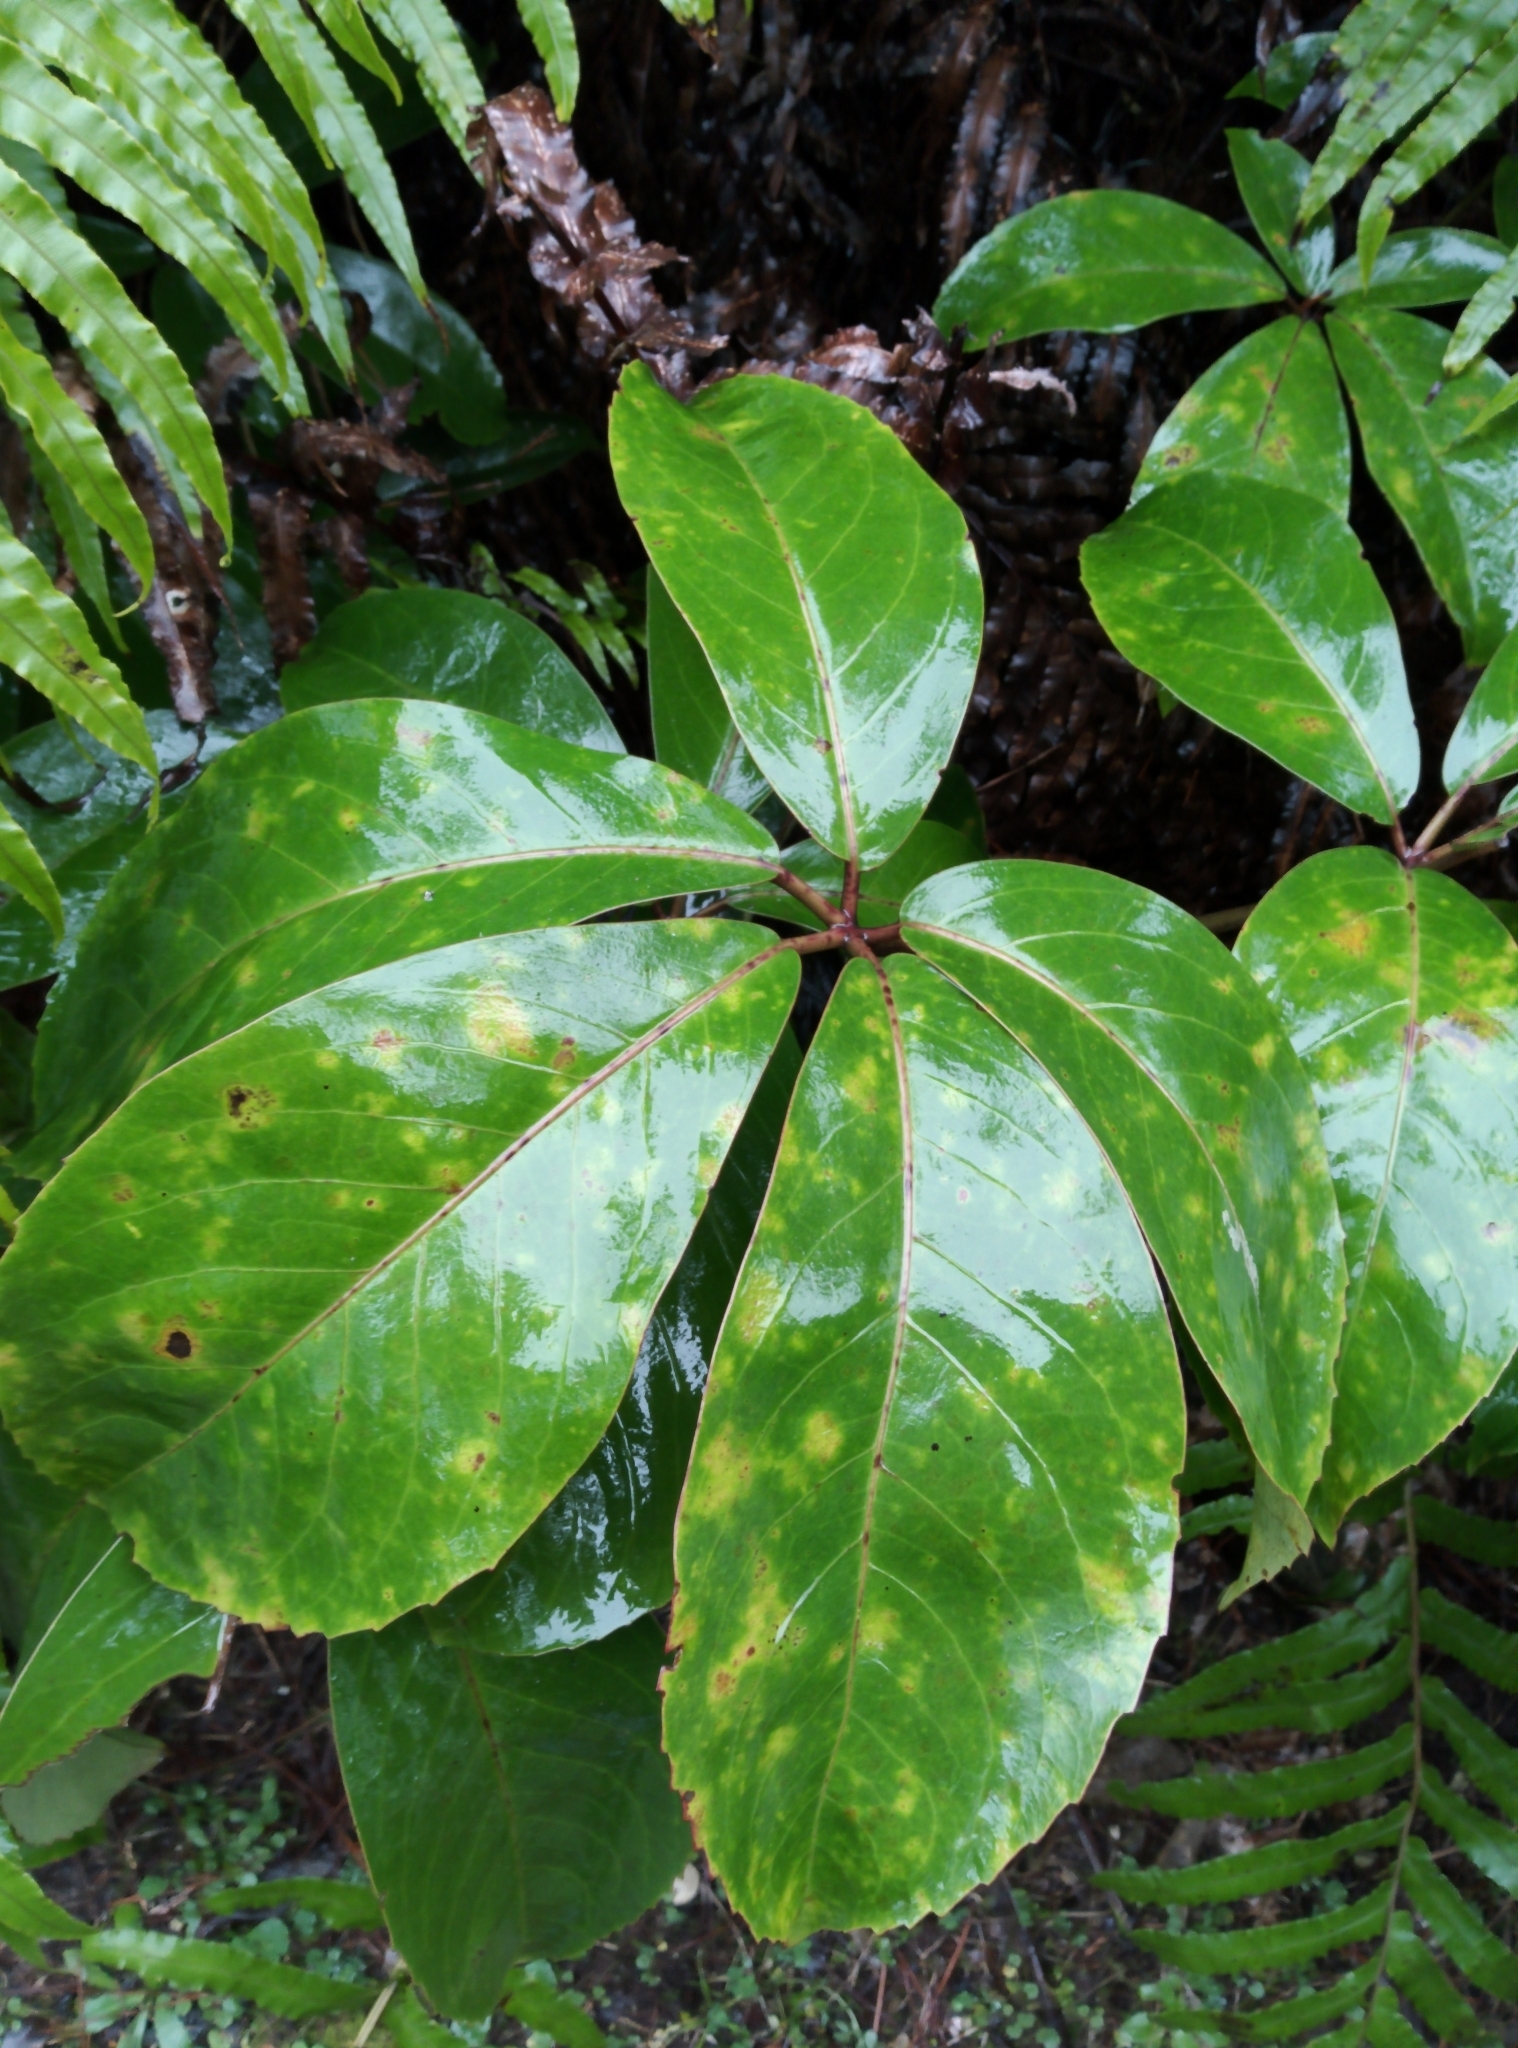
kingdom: Plantae
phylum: Tracheophyta
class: Magnoliopsida
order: Apiales
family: Araliaceae
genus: Neopanax
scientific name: Neopanax laetus
